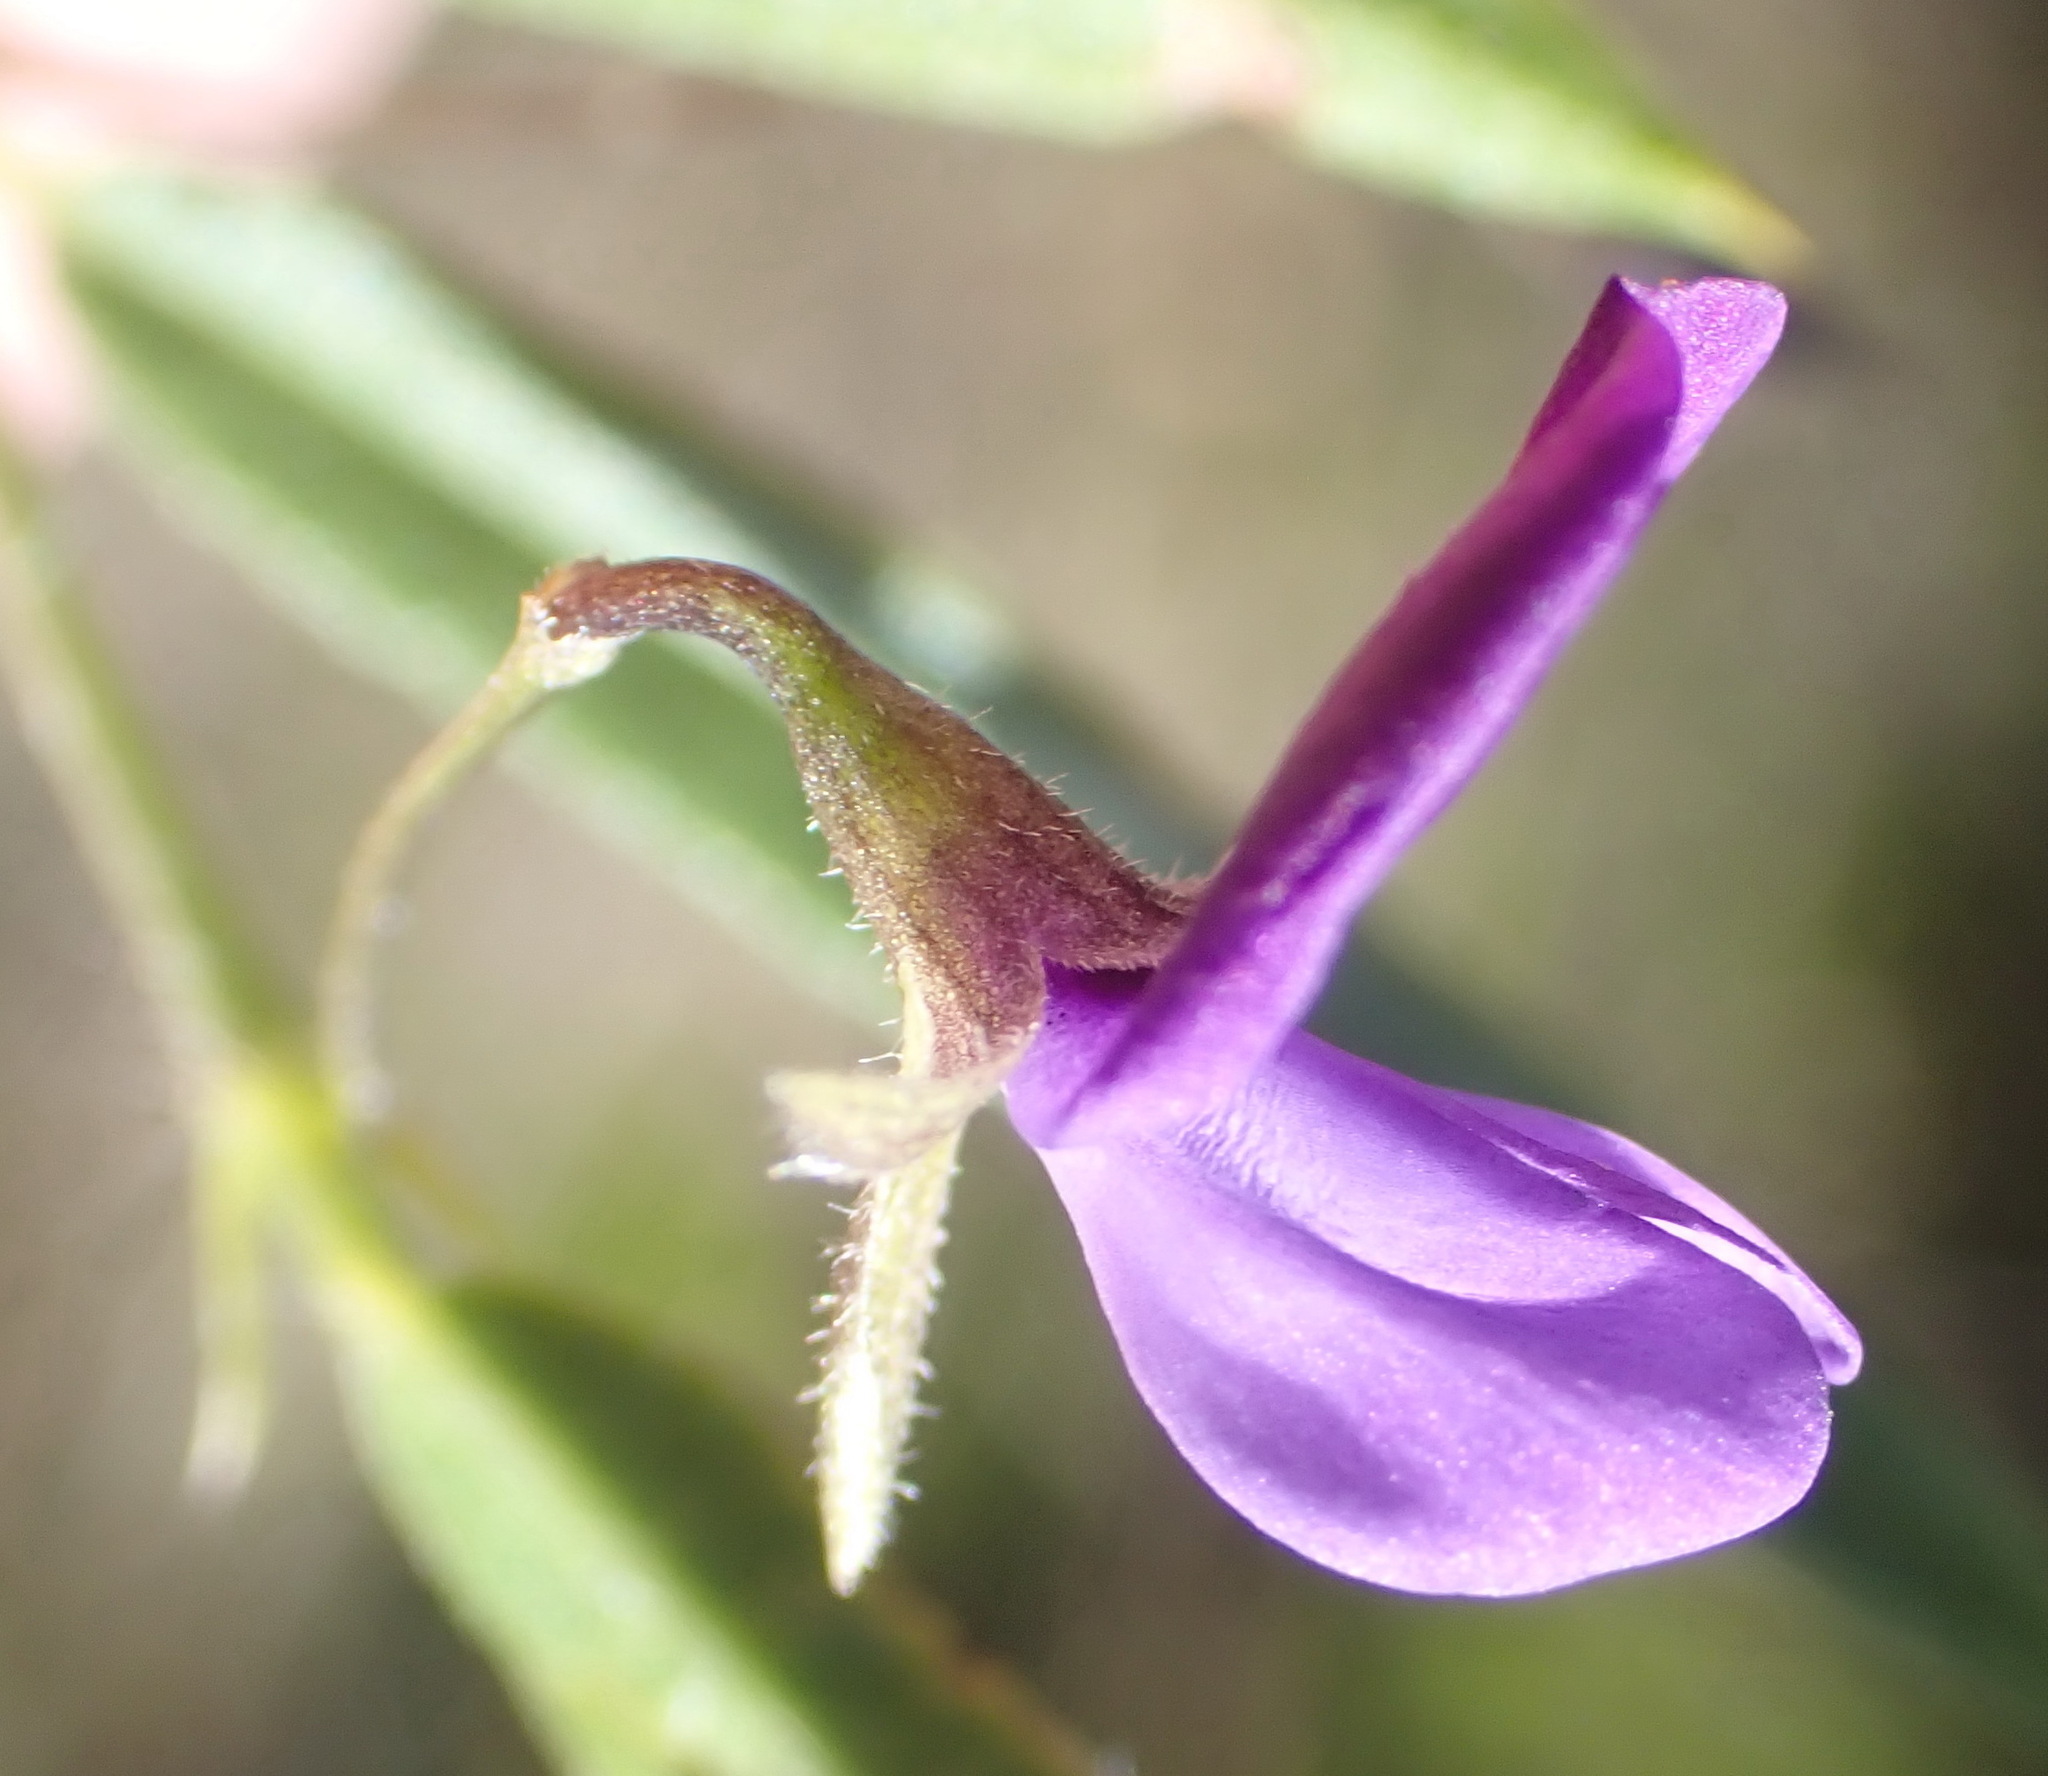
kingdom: Plantae
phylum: Tracheophyta
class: Magnoliopsida
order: Fabales
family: Fabaceae
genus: Psoralea
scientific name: Psoralea plauta
